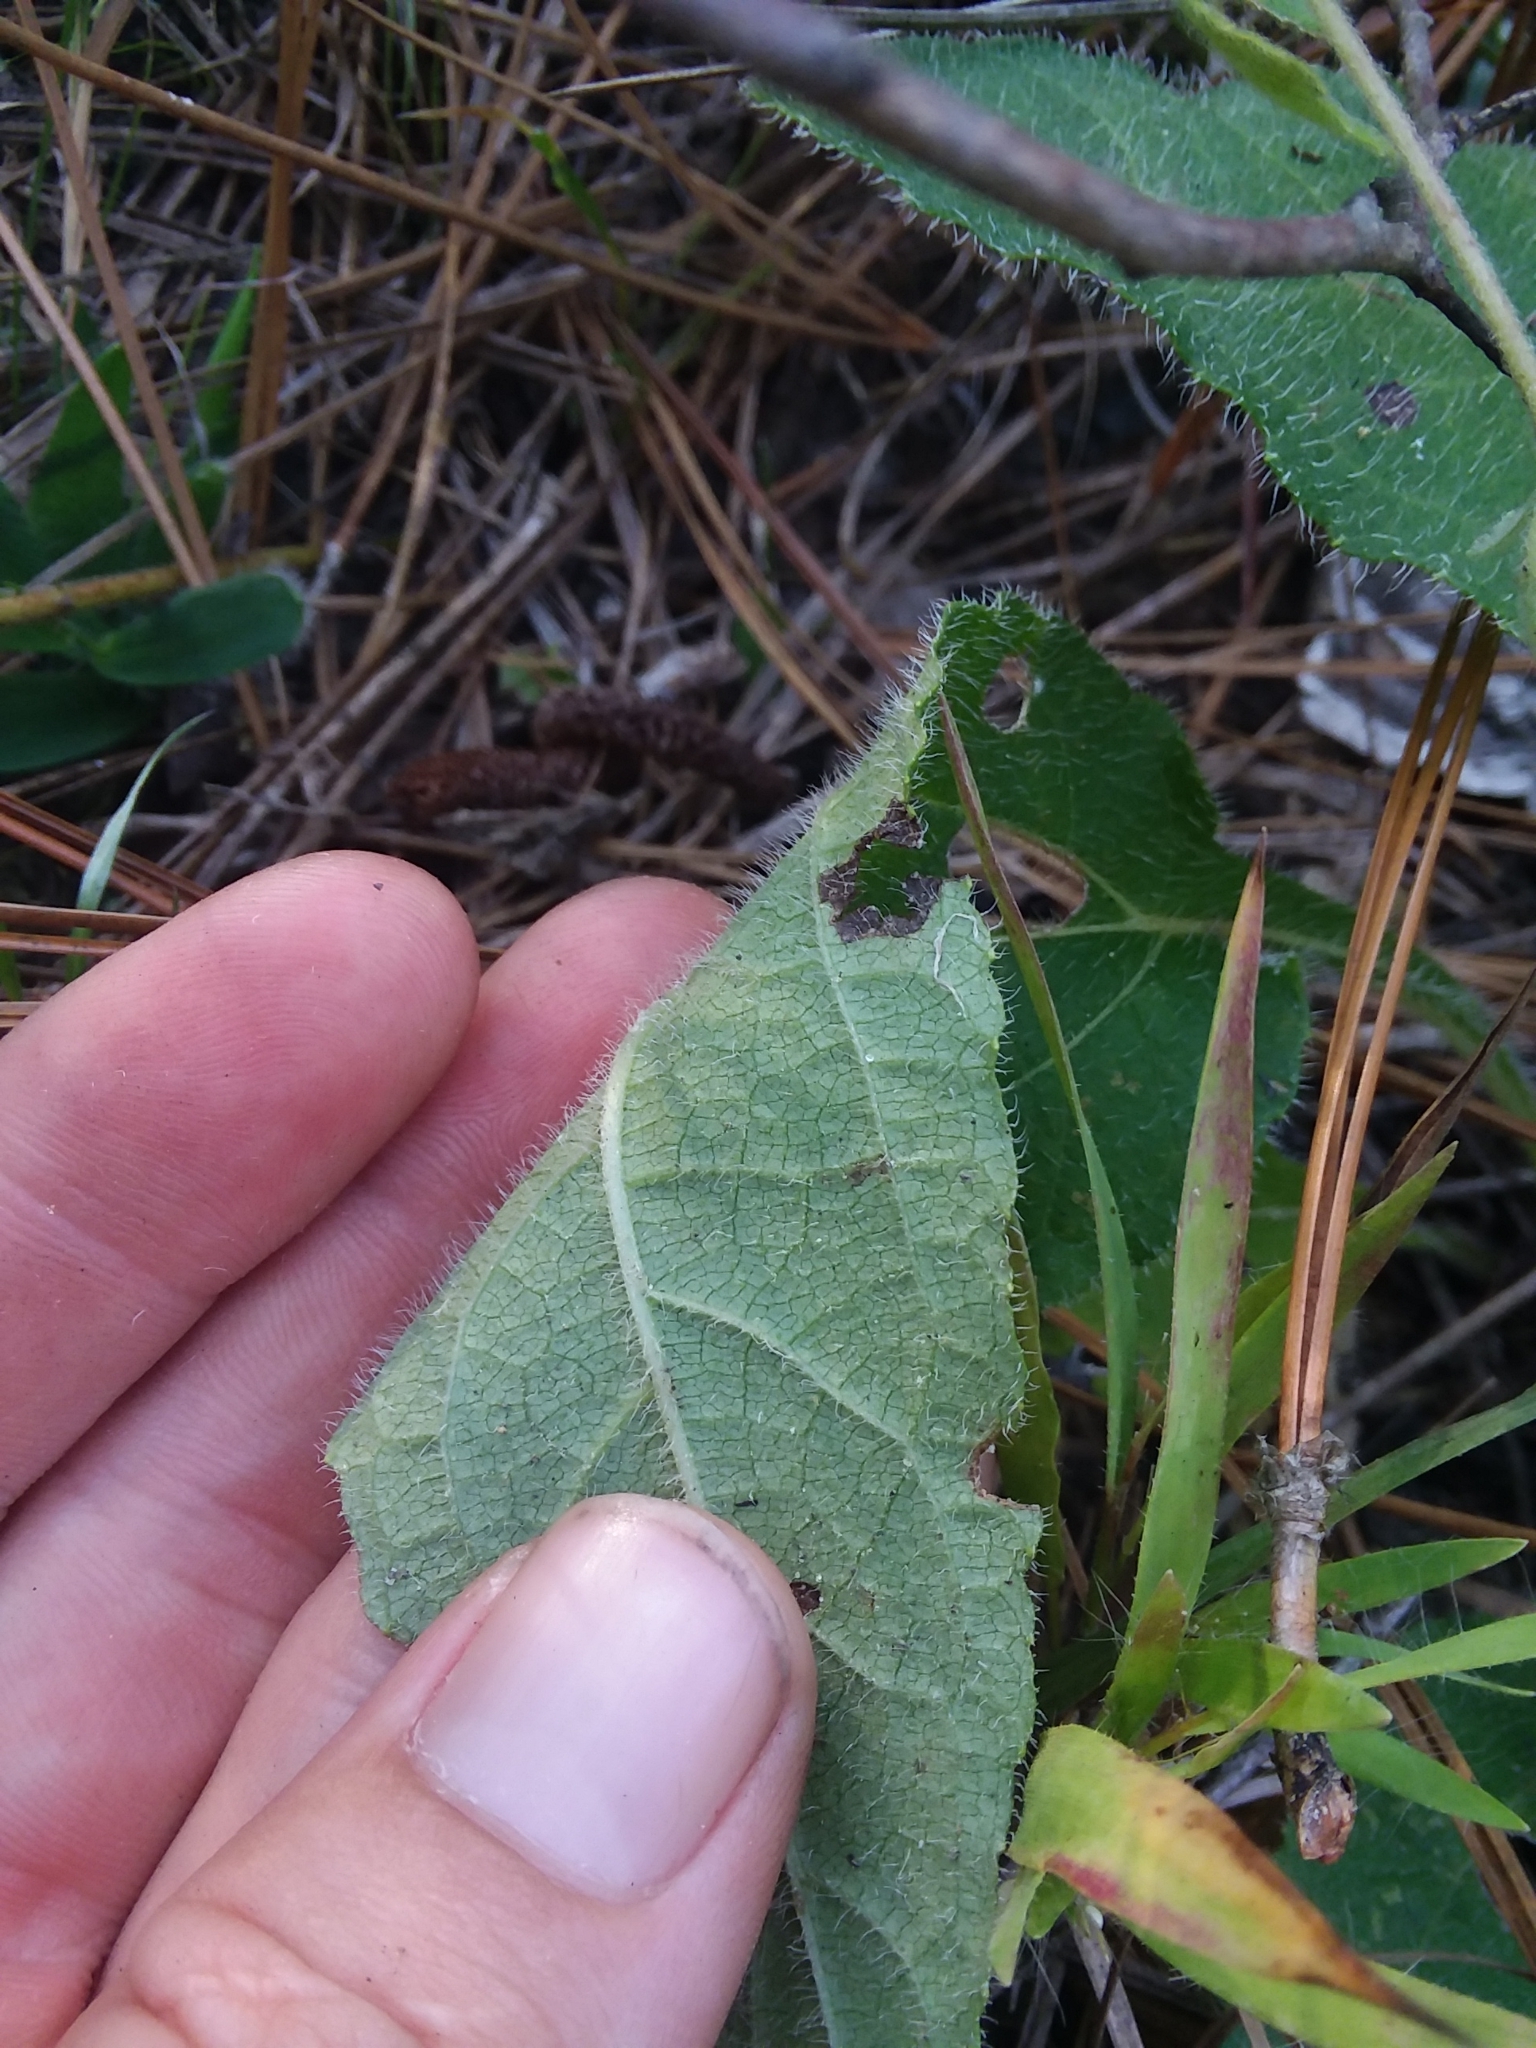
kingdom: Plantae
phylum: Tracheophyta
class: Magnoliopsida
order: Asterales
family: Asteraceae
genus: Helianthus
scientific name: Helianthus atrorubens
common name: Dark-eyed sunflower
